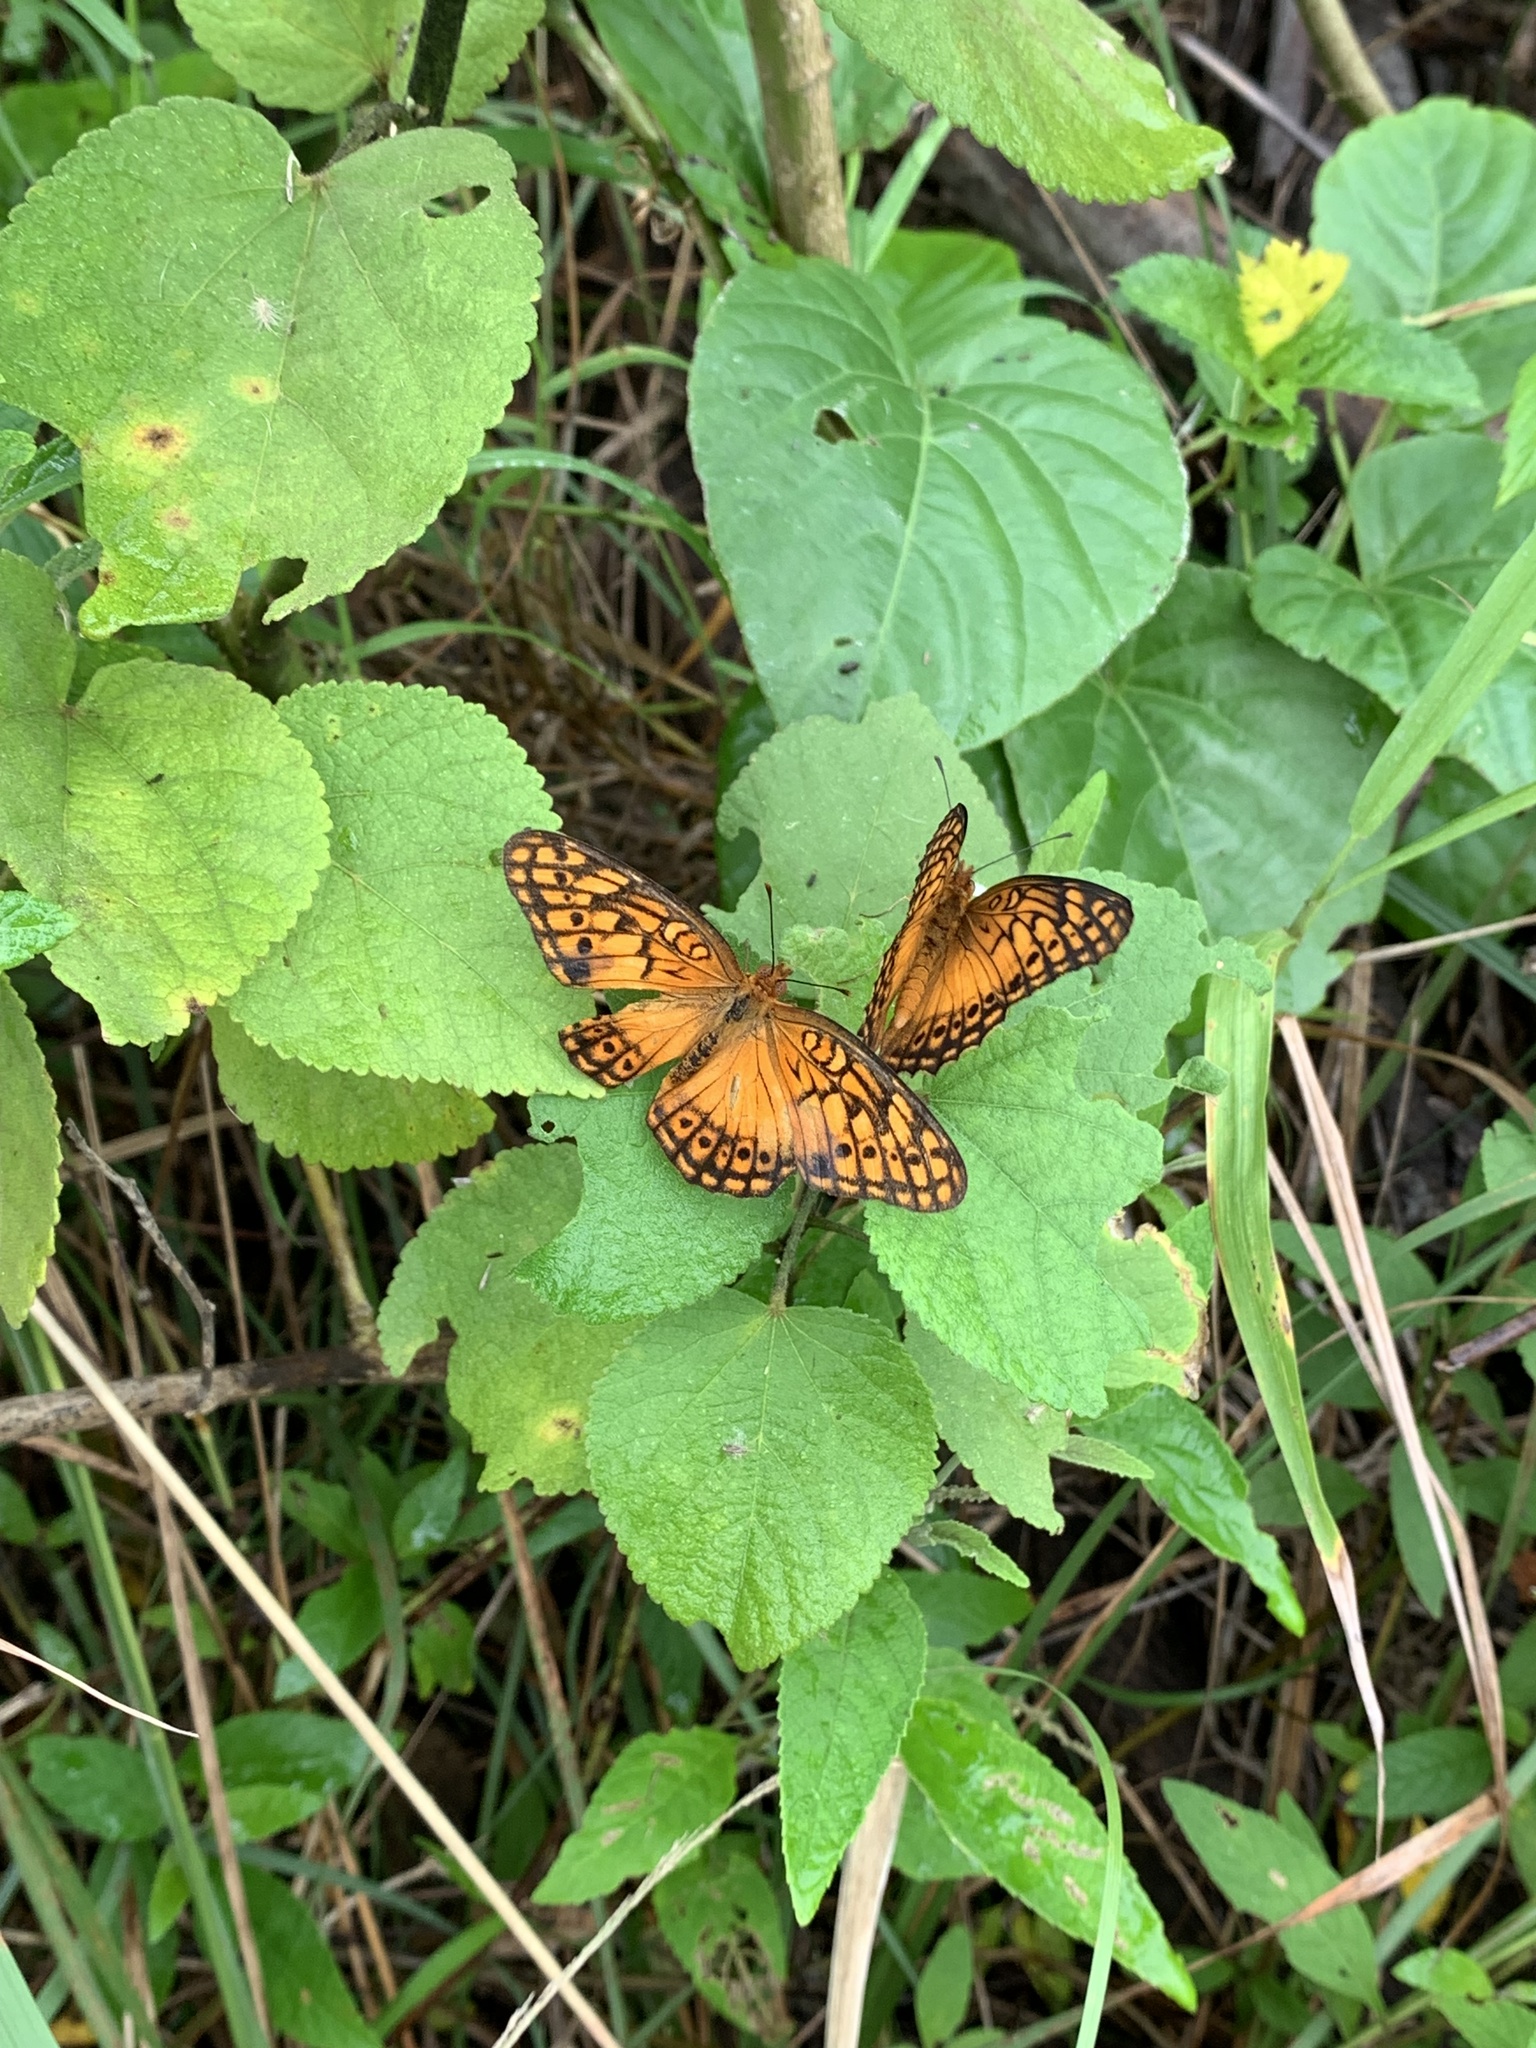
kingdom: Animalia
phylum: Arthropoda
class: Insecta
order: Lepidoptera
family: Nymphalidae
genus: Euptoieta
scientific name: Euptoieta hegesia
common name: Mexican fritillary
